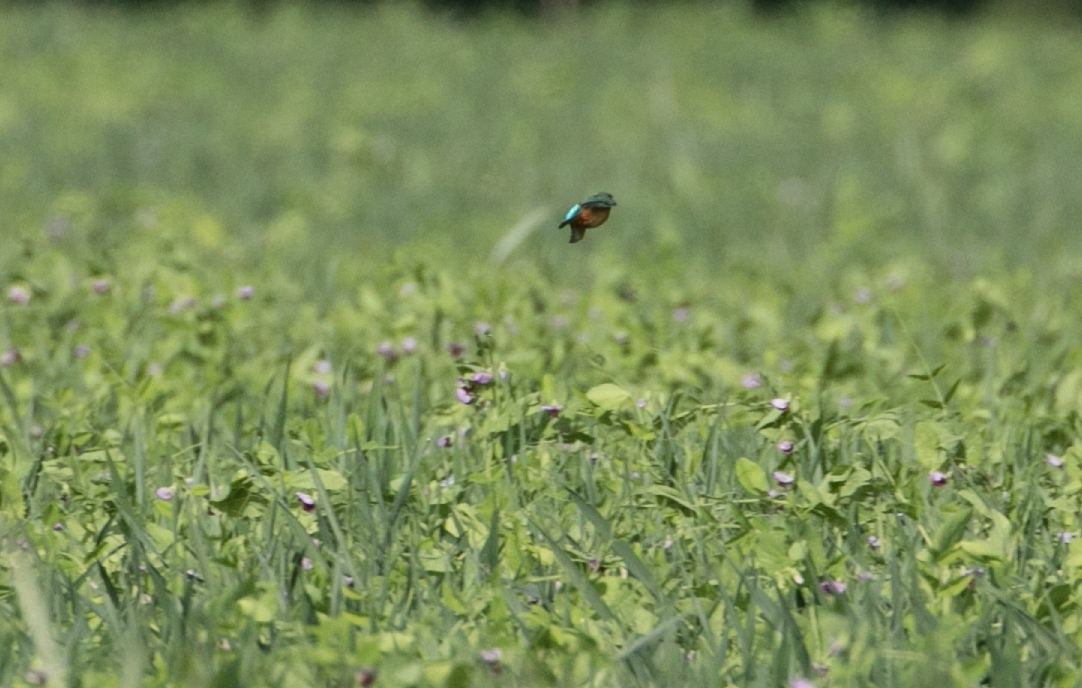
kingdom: Animalia
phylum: Chordata
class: Aves
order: Coraciiformes
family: Alcedinidae
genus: Alcedo
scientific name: Alcedo atthis
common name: Common kingfisher
